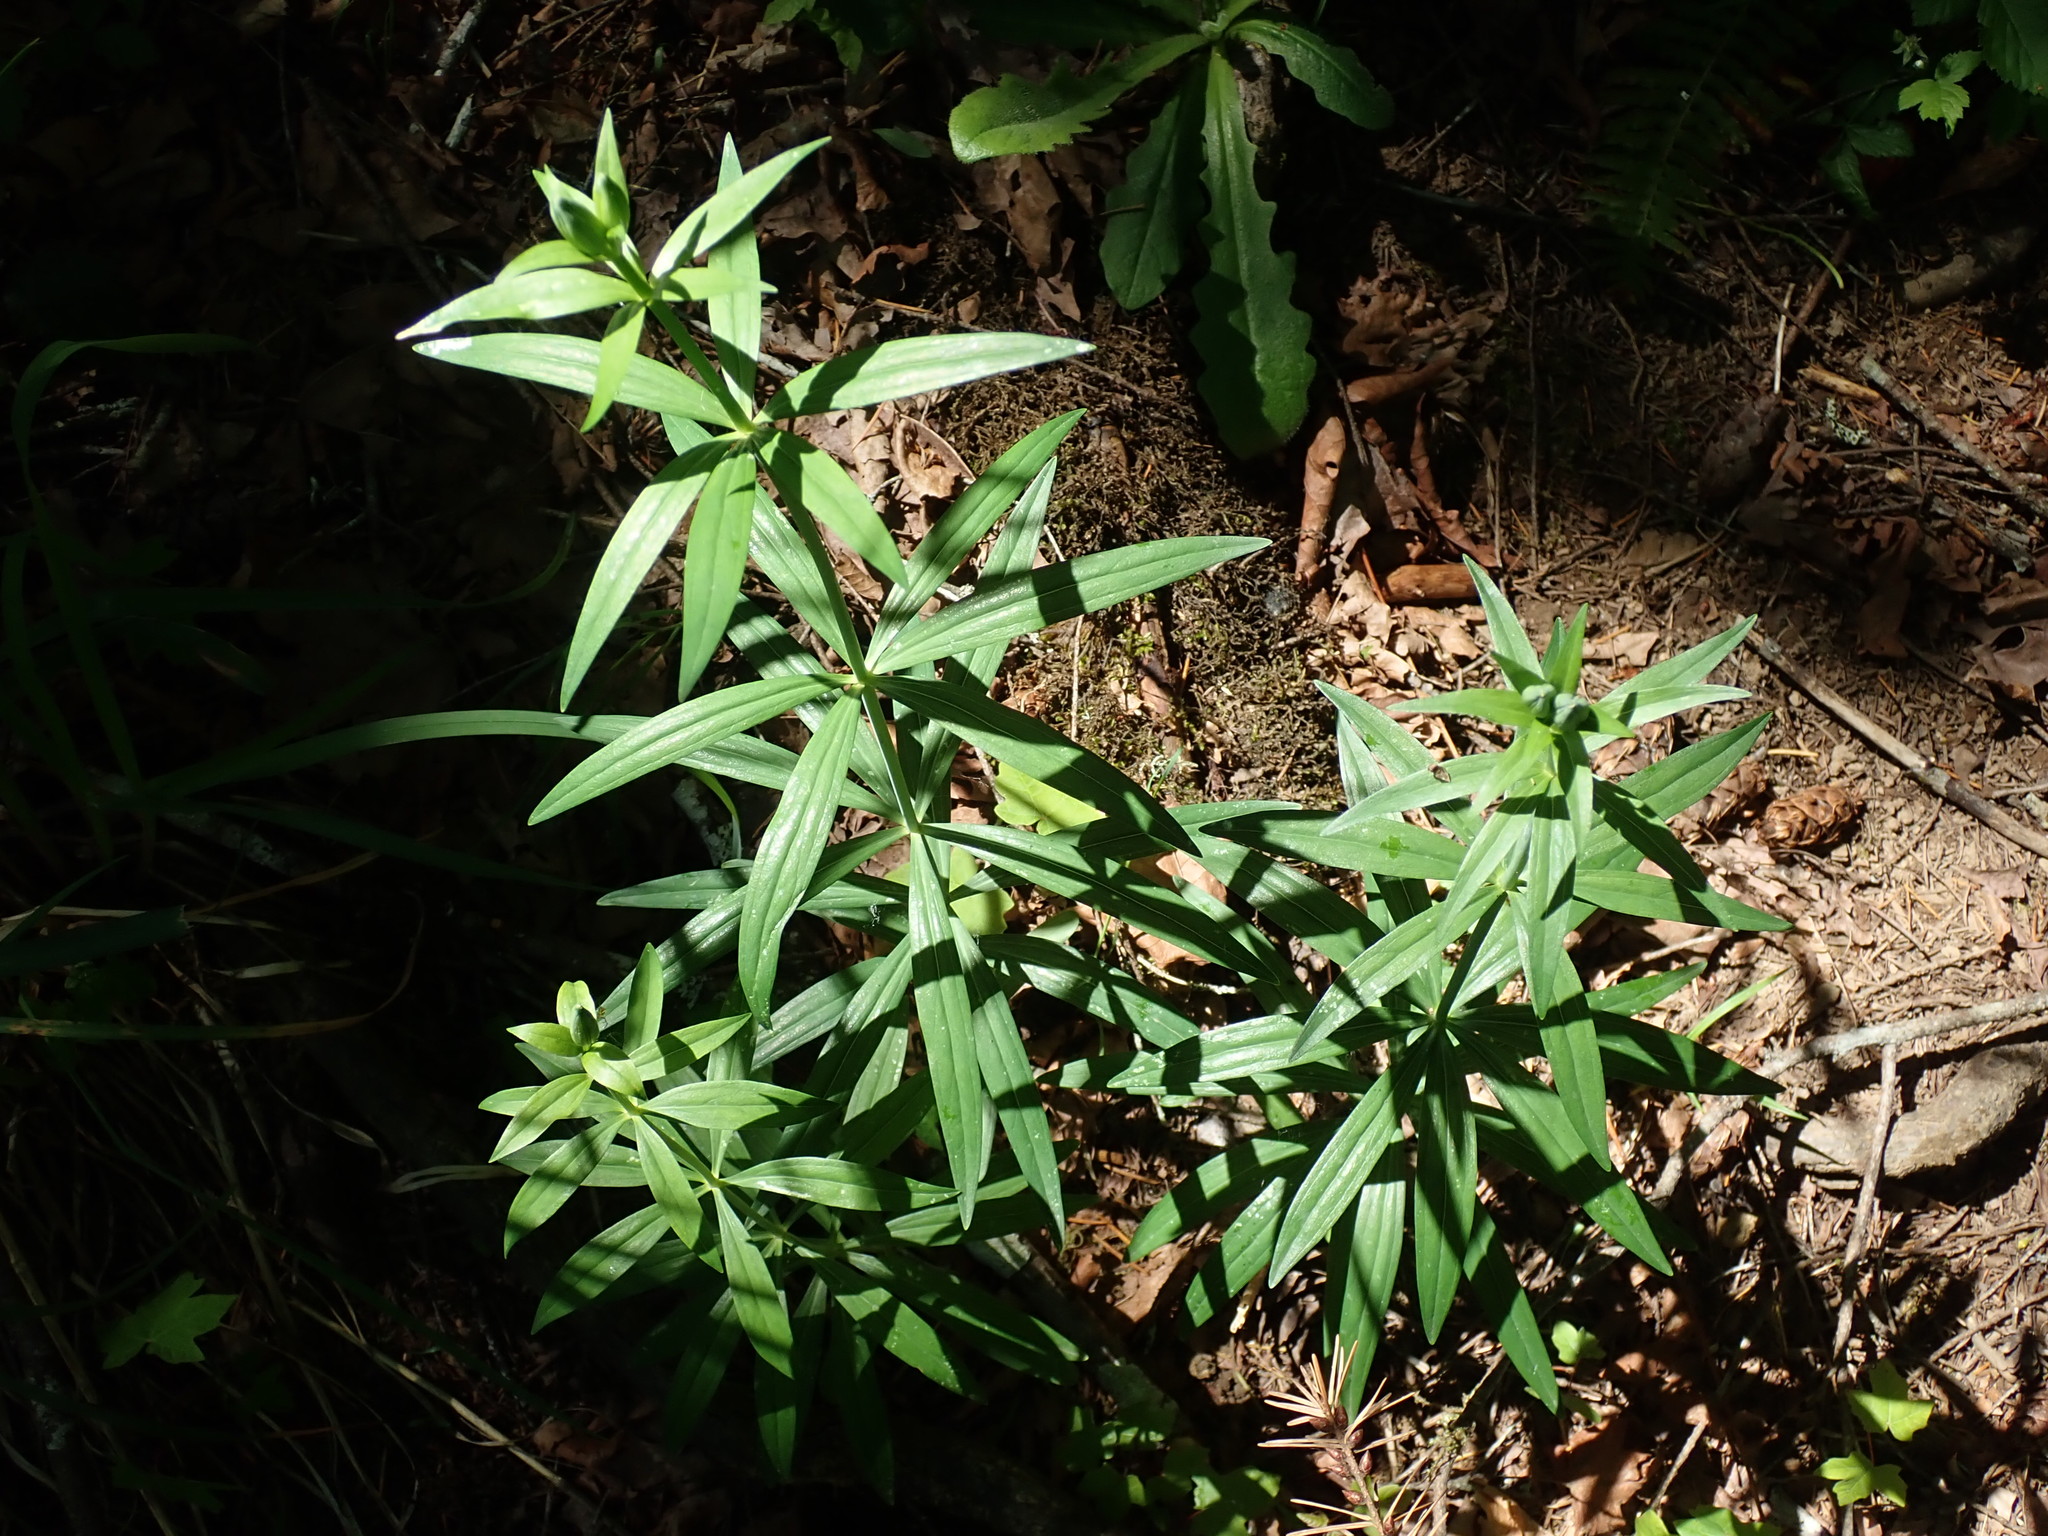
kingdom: Plantae
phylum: Tracheophyta
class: Liliopsida
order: Liliales
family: Liliaceae
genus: Lilium
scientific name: Lilium columbianum
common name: Columbia lily
